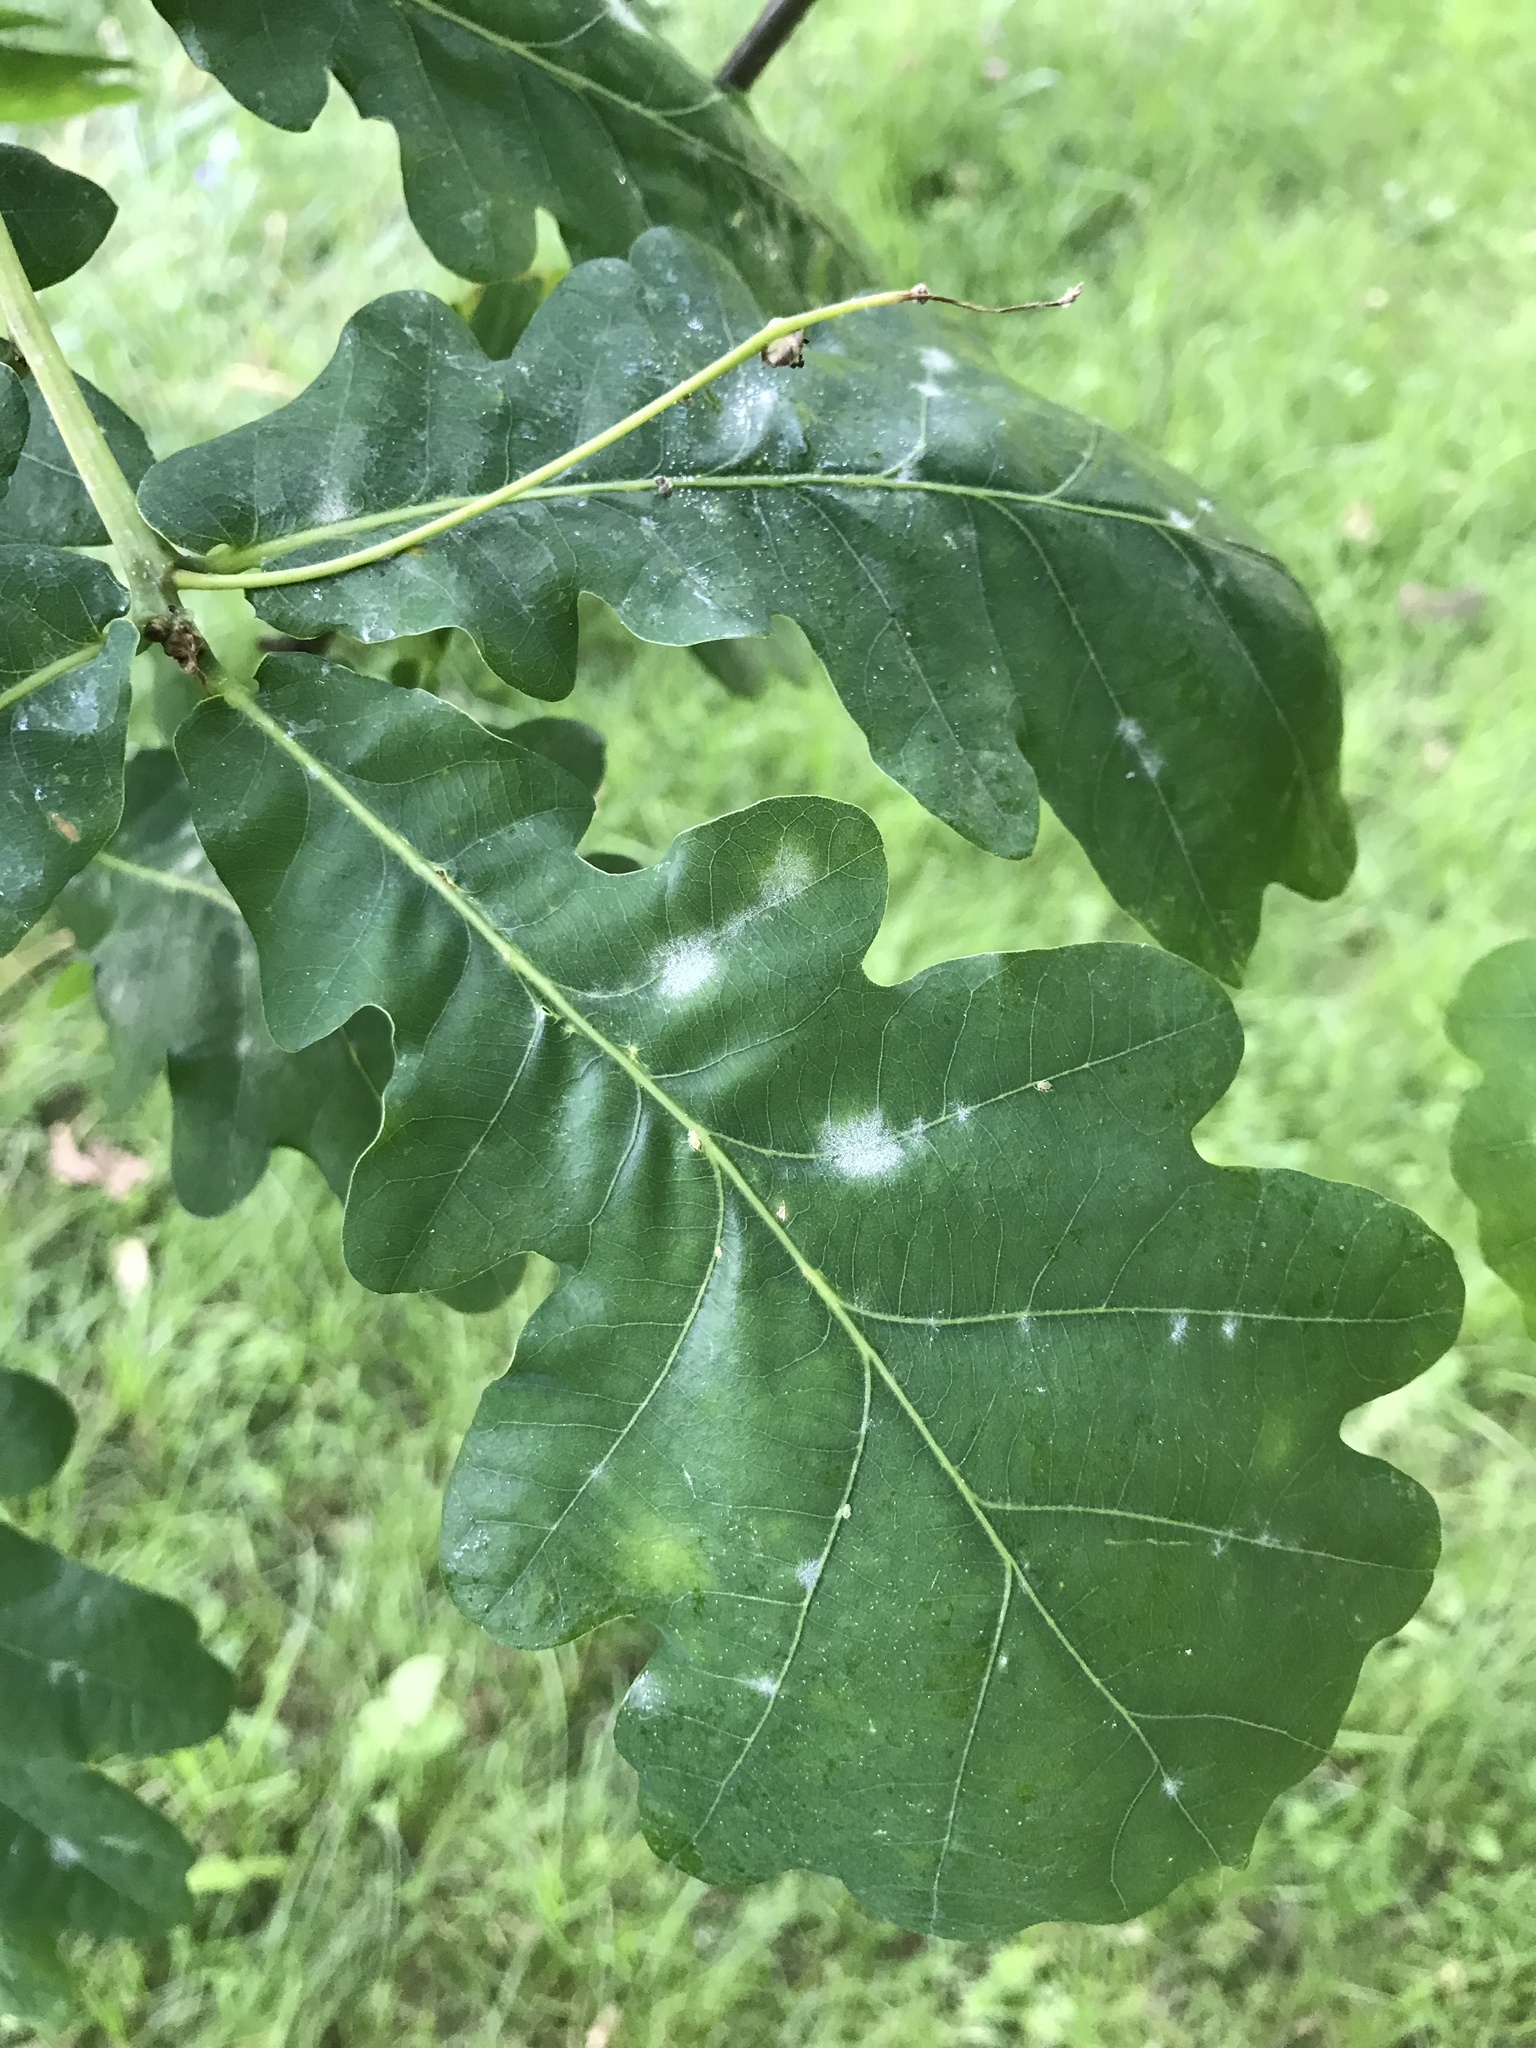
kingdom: Fungi
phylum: Ascomycota
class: Leotiomycetes
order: Helotiales
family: Erysiphaceae
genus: Erysiphe
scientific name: Erysiphe
